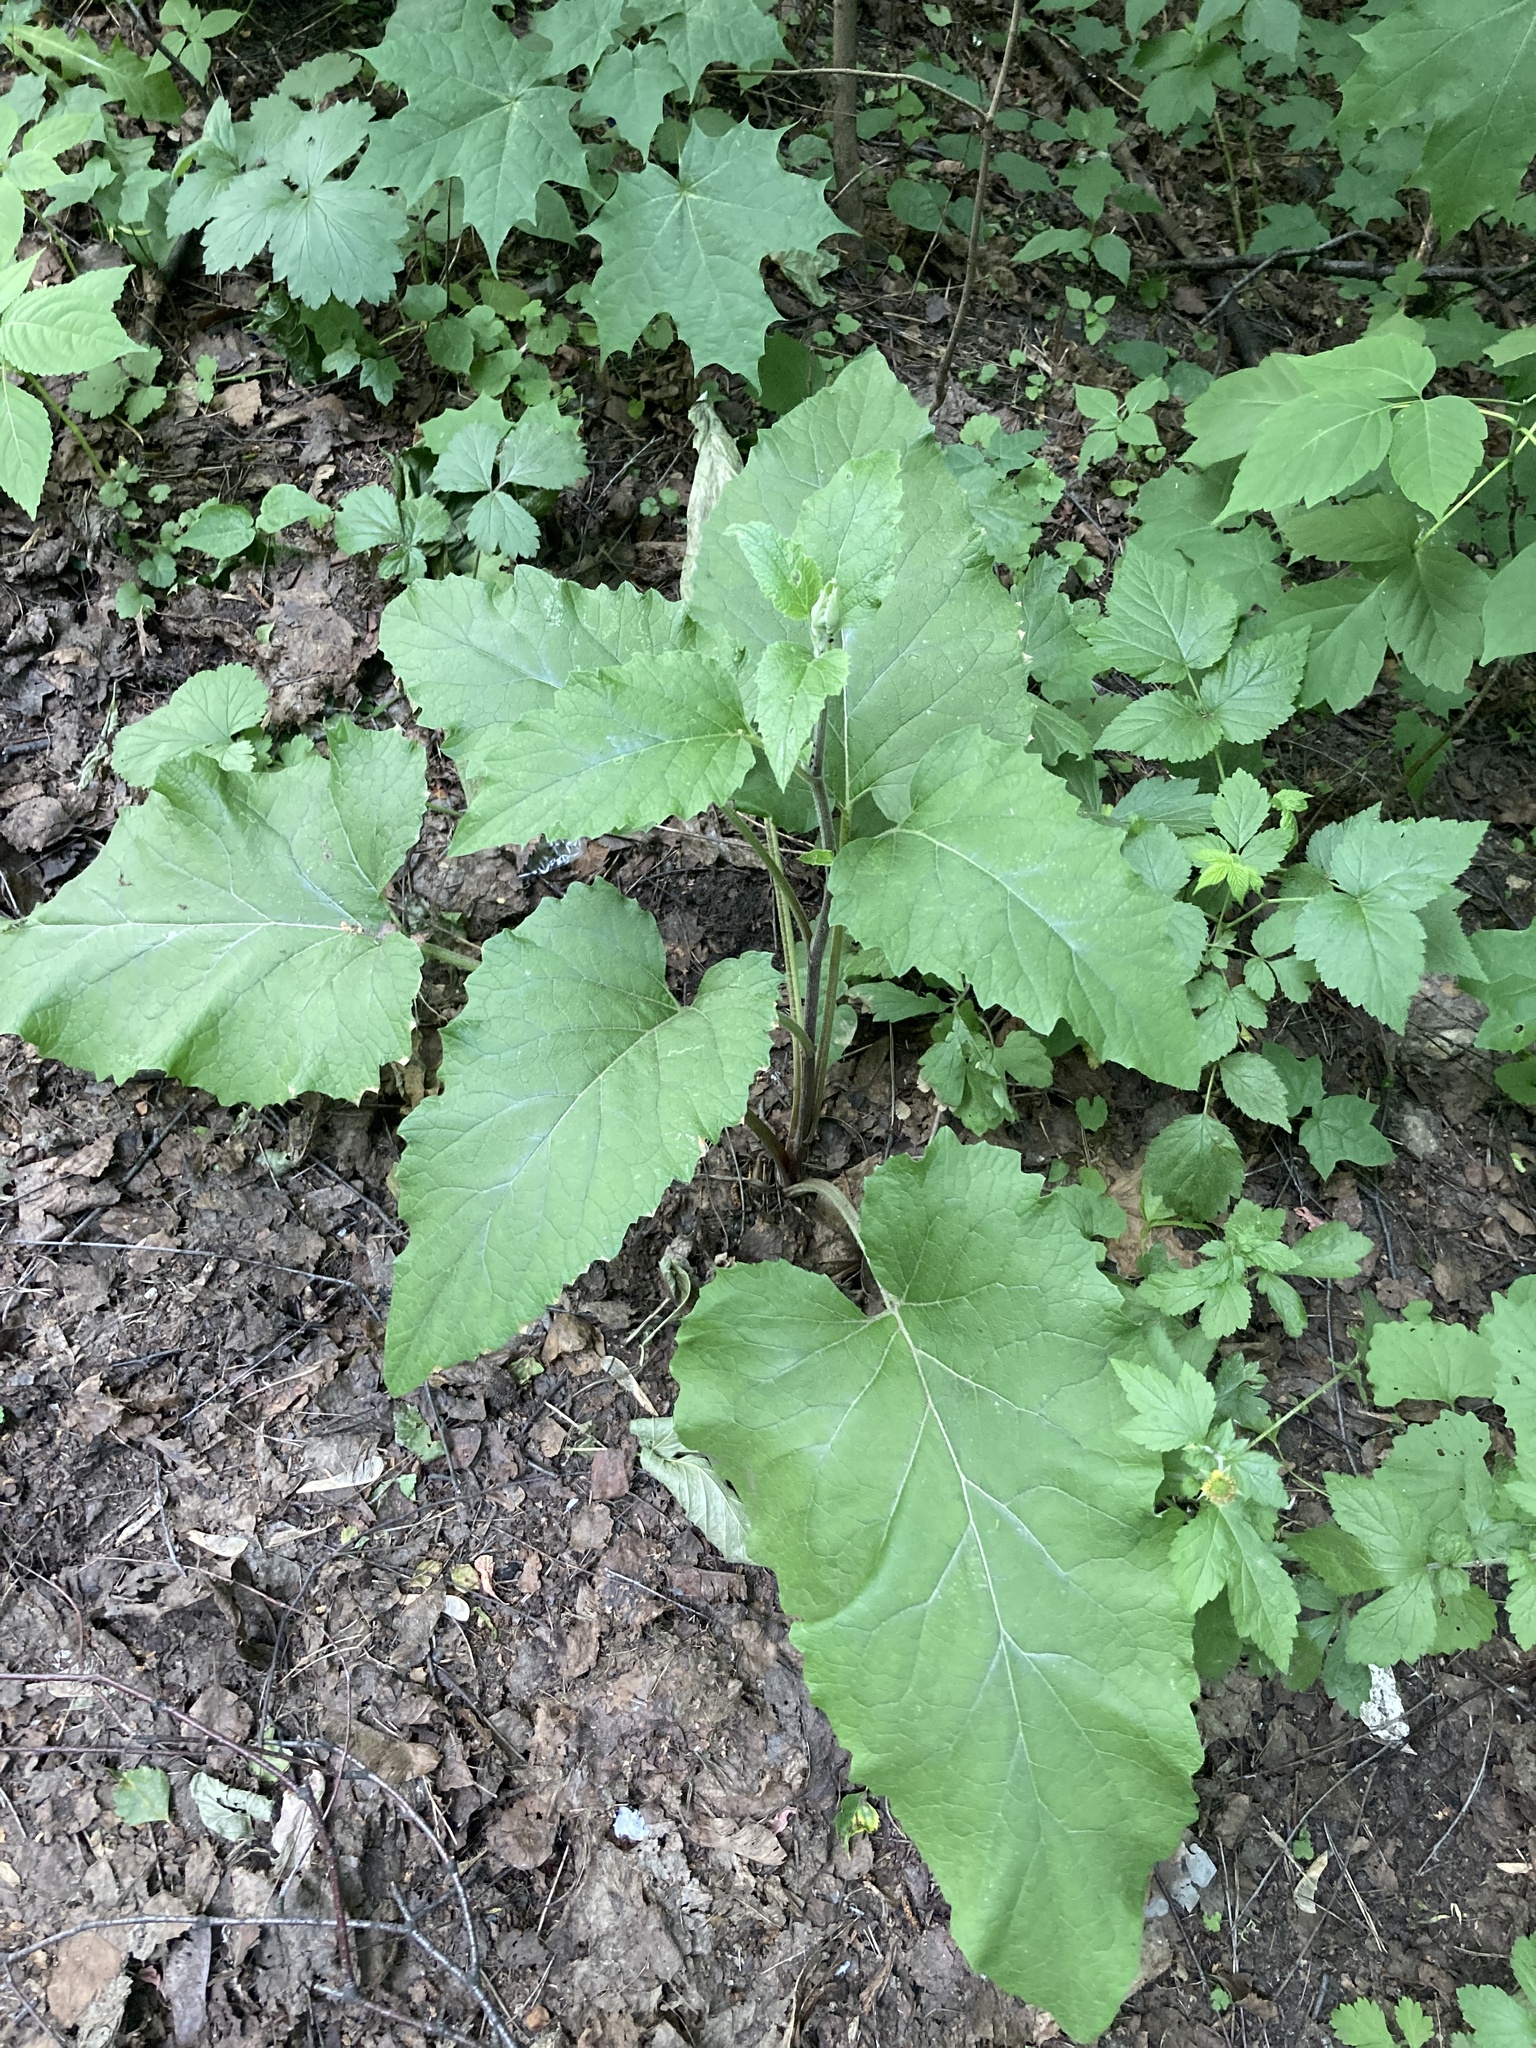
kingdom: Plantae
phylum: Tracheophyta
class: Magnoliopsida
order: Asterales
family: Asteraceae
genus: Arctium
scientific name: Arctium minus
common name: Lesser burdock
